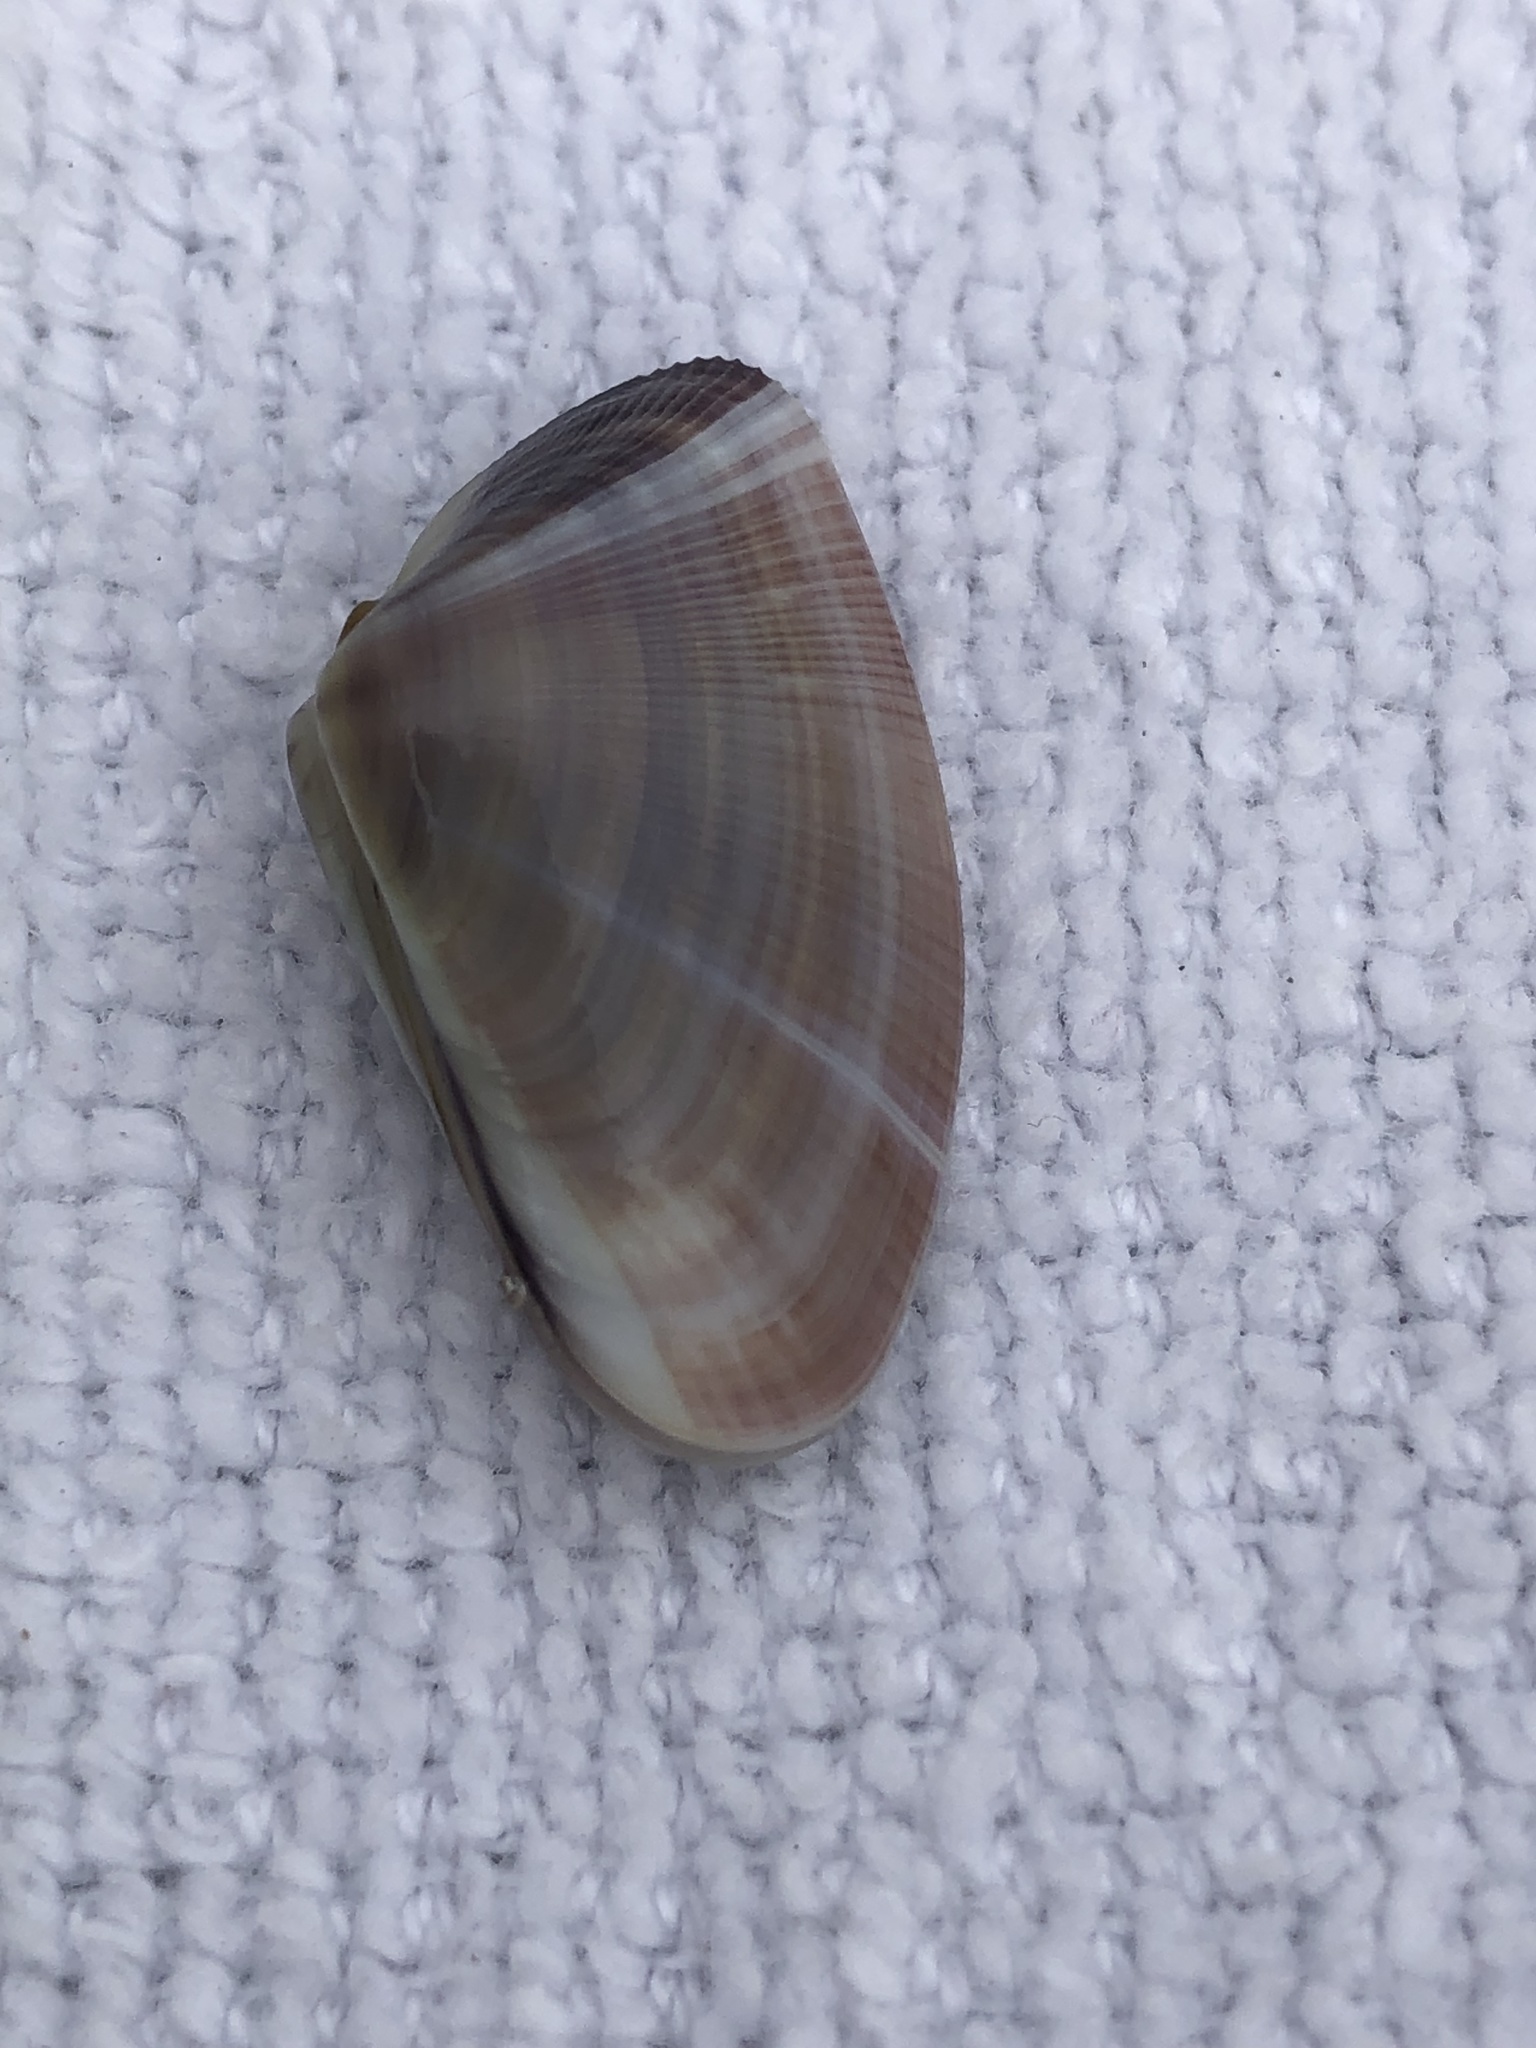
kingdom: Animalia
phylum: Mollusca
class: Bivalvia
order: Cardiida
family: Donacidae
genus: Donax
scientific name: Donax variabilis
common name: Butterfly shell
